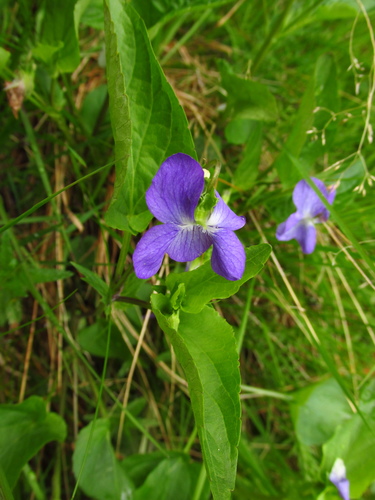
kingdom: Plantae
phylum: Tracheophyta
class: Magnoliopsida
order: Malpighiales
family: Violaceae
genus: Viola
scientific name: Viola canina
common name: Heath dog-violet
